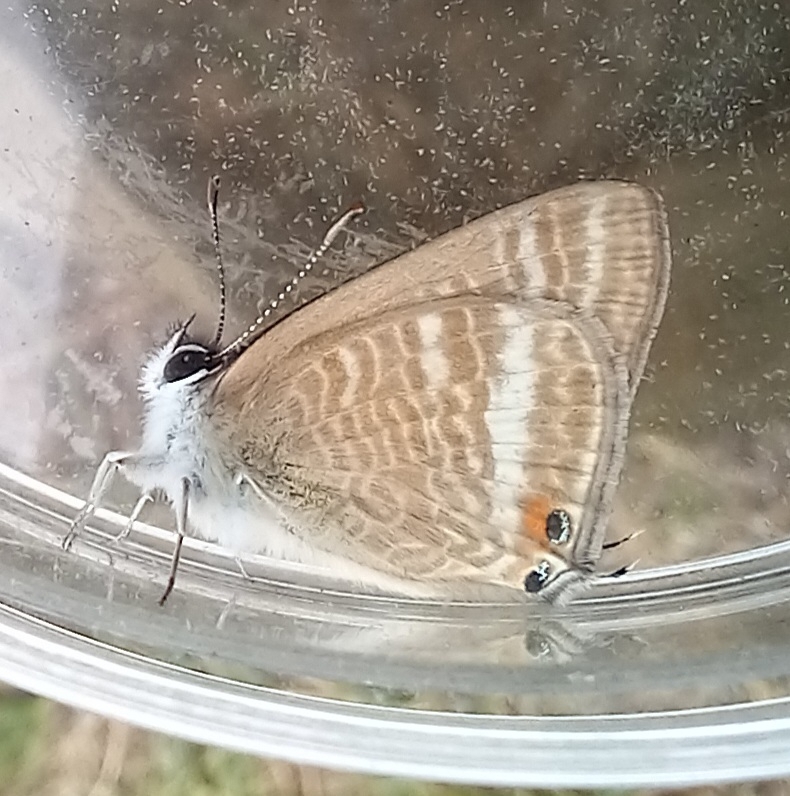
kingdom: Animalia
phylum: Arthropoda
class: Insecta
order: Lepidoptera
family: Lycaenidae
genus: Lampides
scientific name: Lampides boeticus
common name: Long-tailed blue
